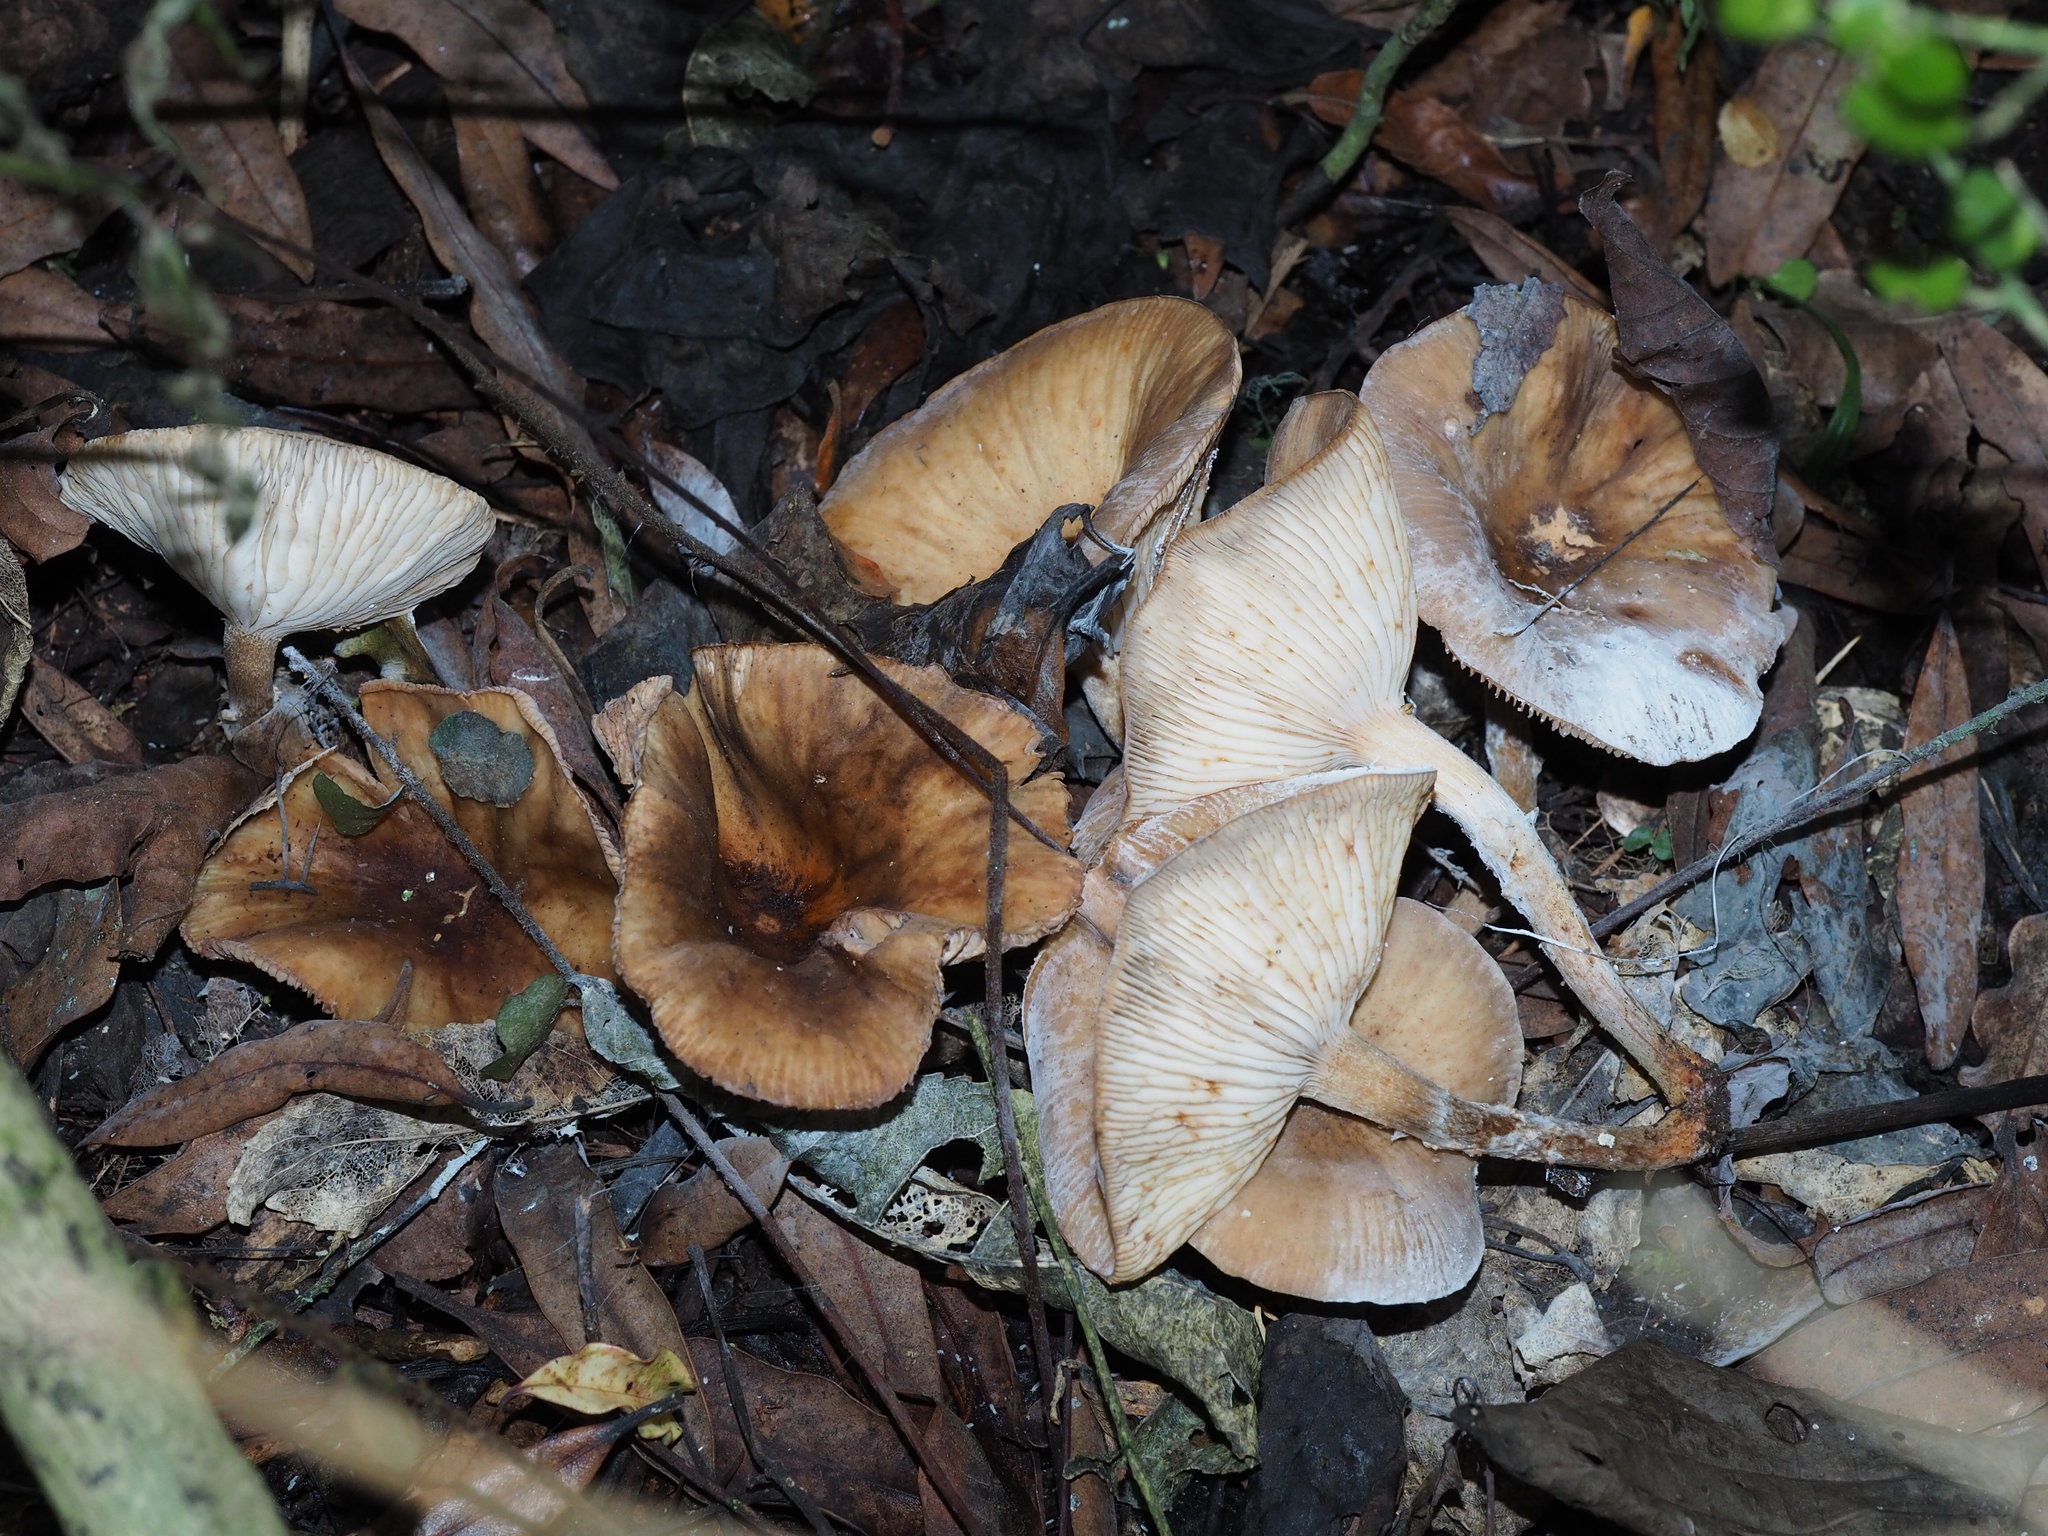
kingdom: Fungi
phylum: Basidiomycota
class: Agaricomycetes
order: Agaricales
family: Physalacriaceae
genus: Armillaria
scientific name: Armillaria novae-zelandiae
